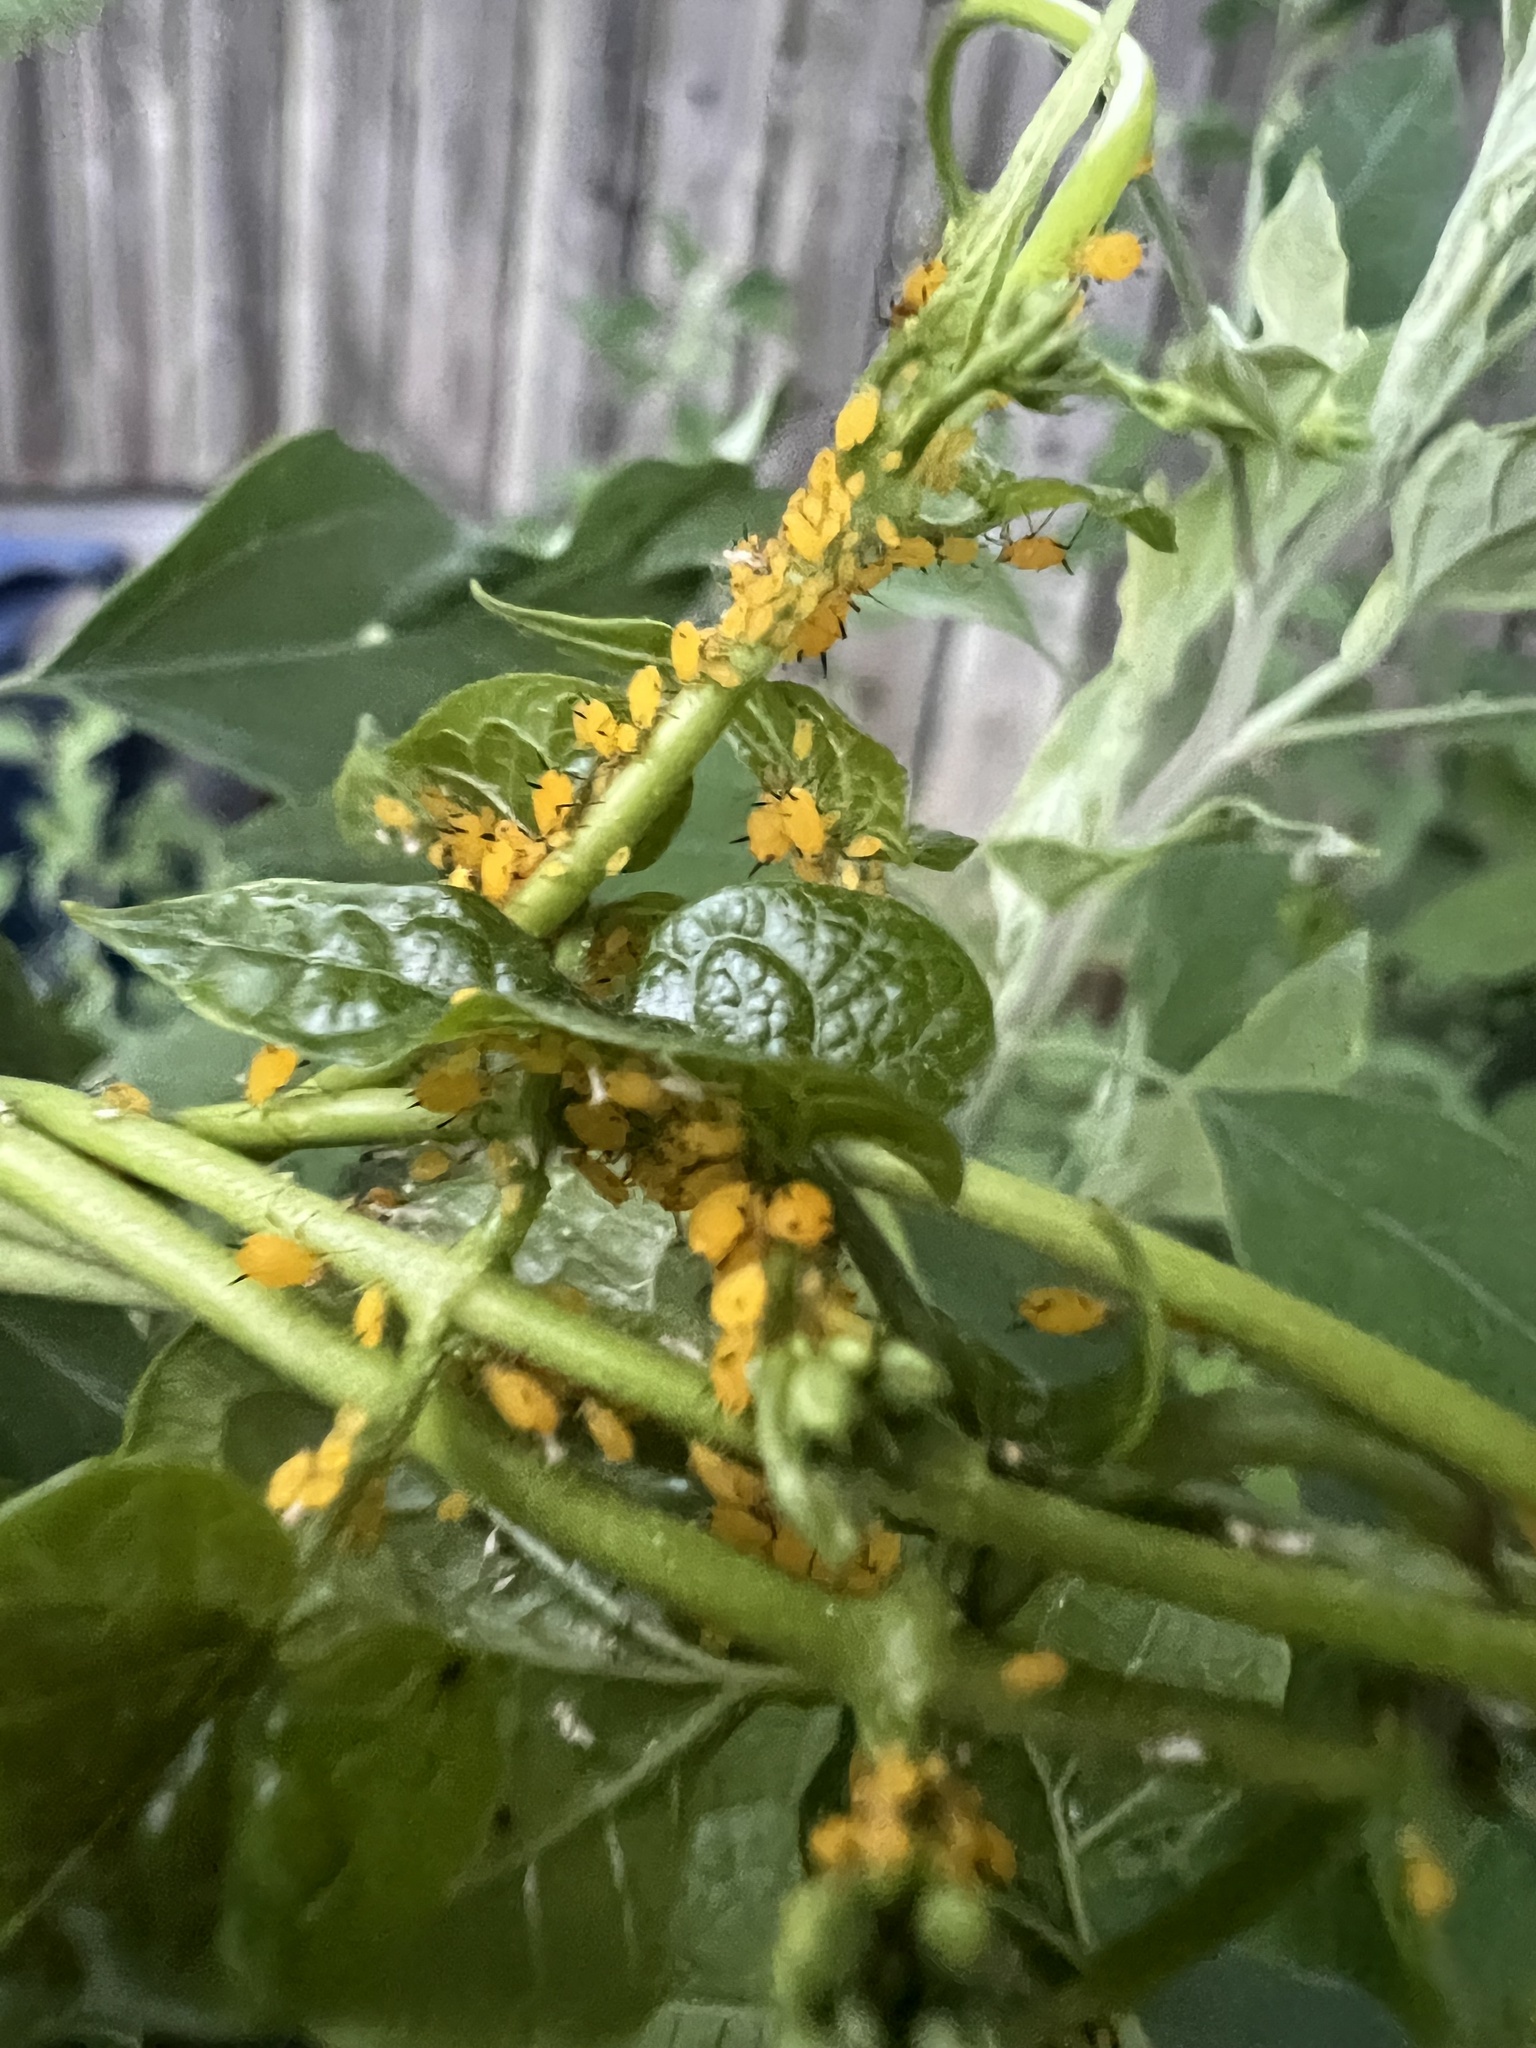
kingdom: Animalia
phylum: Arthropoda
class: Insecta
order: Hemiptera
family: Aphididae
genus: Aphis
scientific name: Aphis nerii
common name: Oleander aphid
